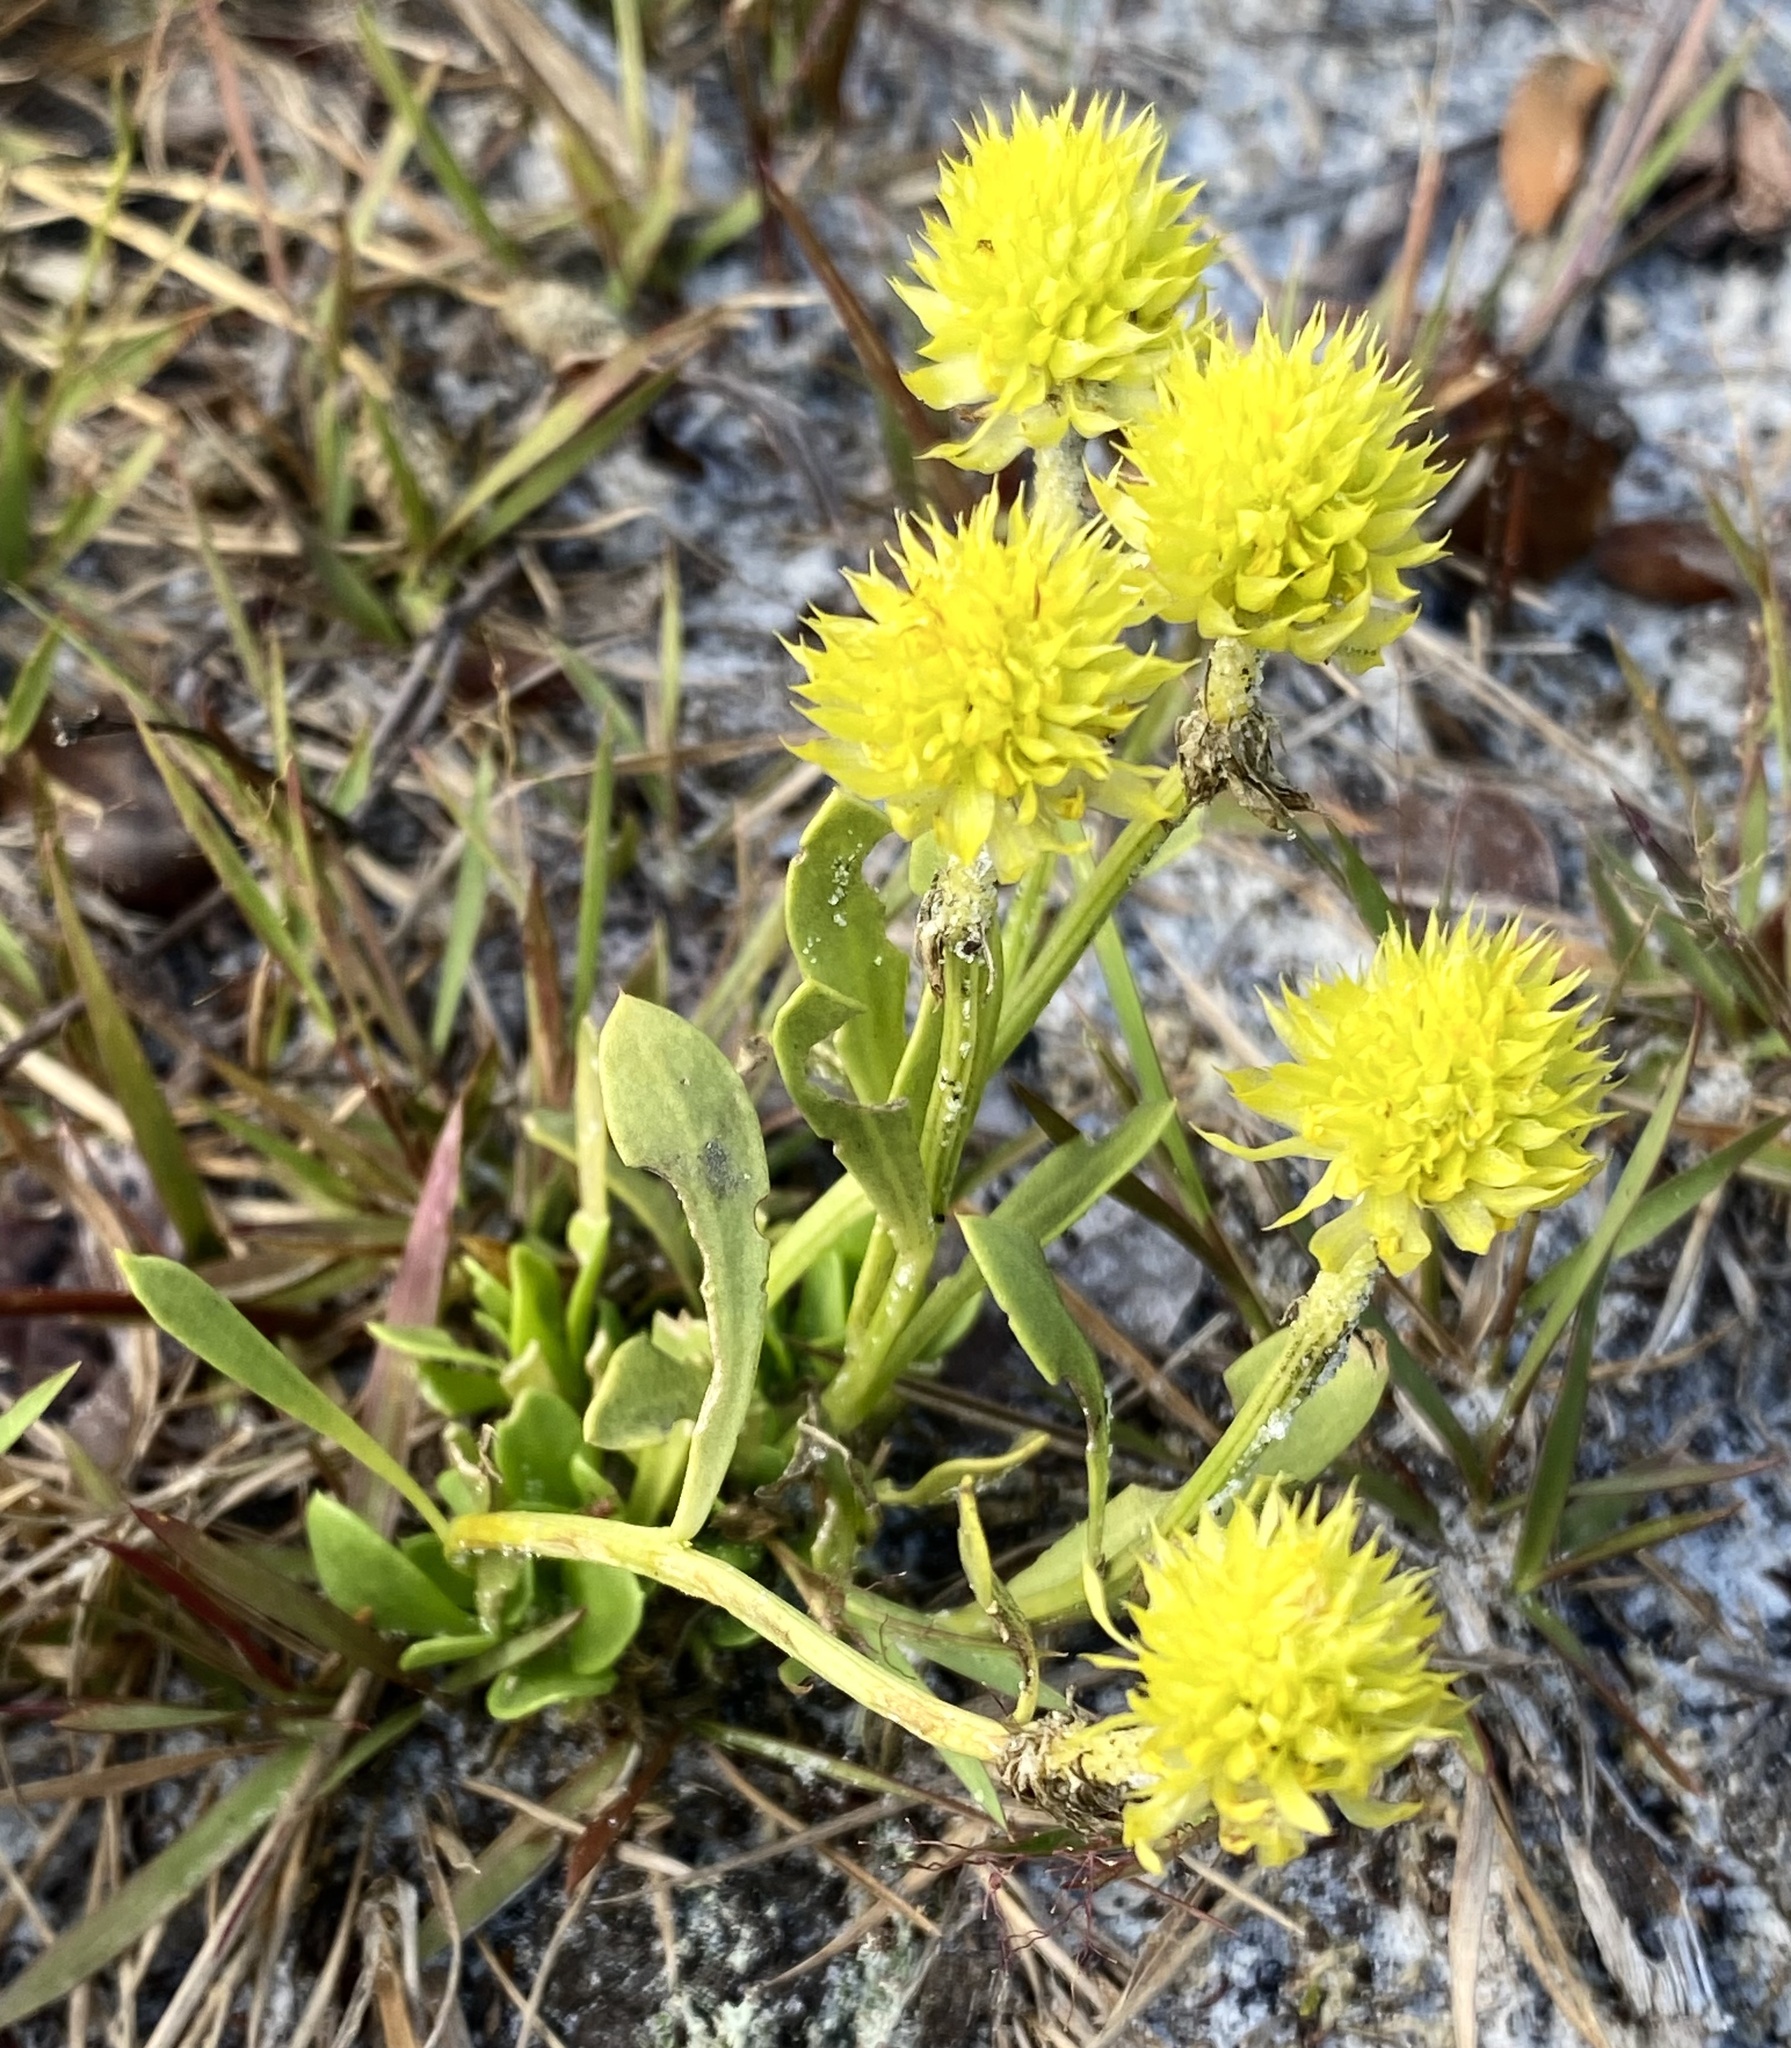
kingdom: Plantae
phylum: Tracheophyta
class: Magnoliopsida
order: Fabales
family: Polygalaceae
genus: Polygala
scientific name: Polygala nana
